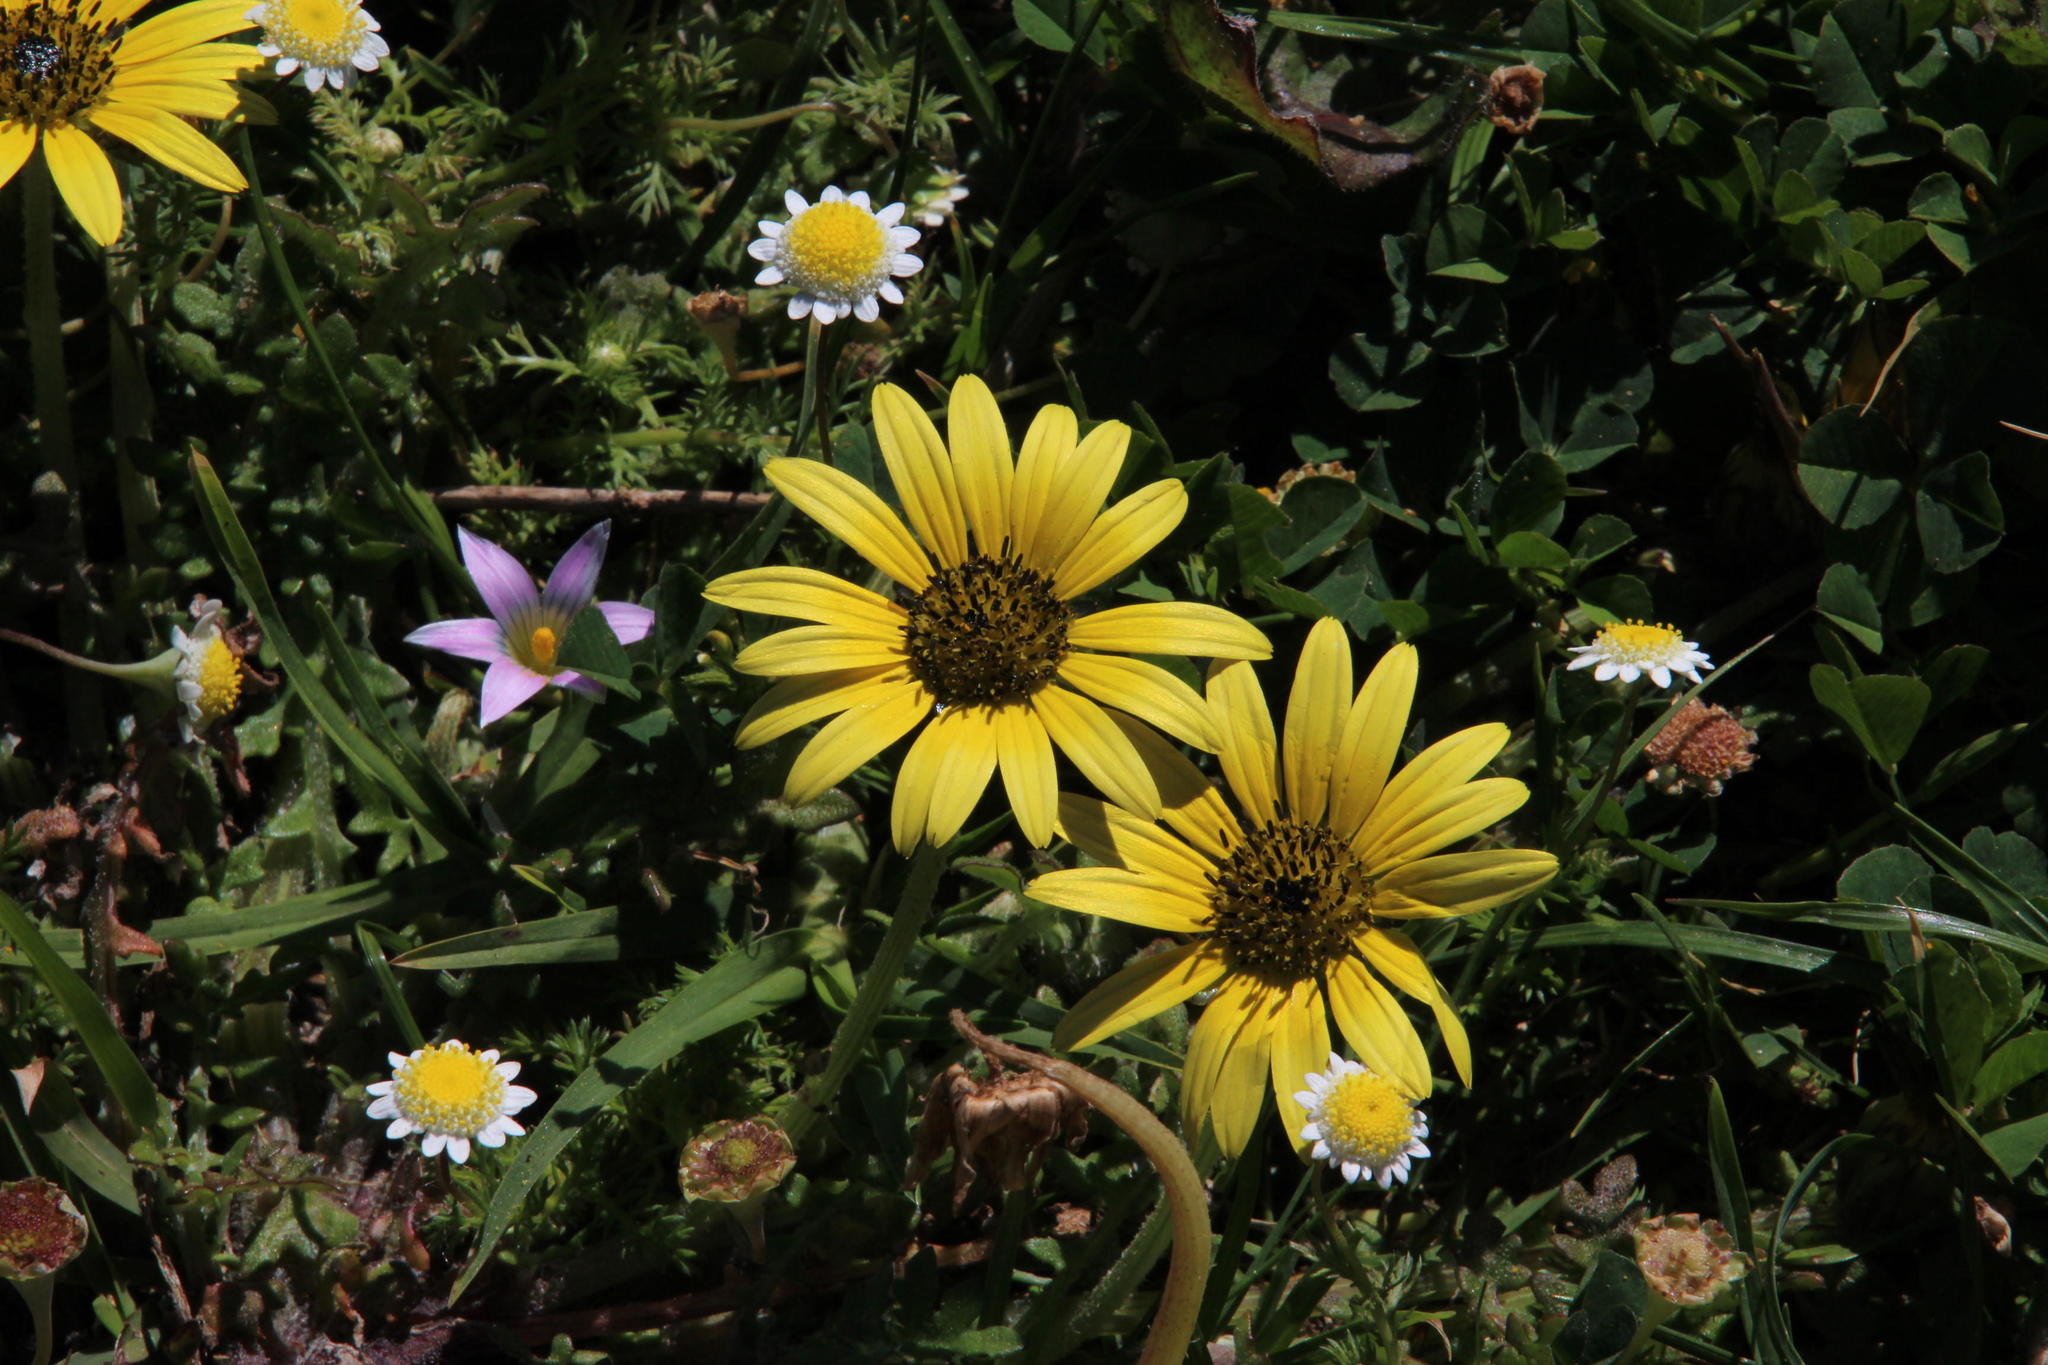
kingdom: Plantae
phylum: Tracheophyta
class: Magnoliopsida
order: Asterales
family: Asteraceae
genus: Arctotheca
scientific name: Arctotheca calendula
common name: Capeweed
